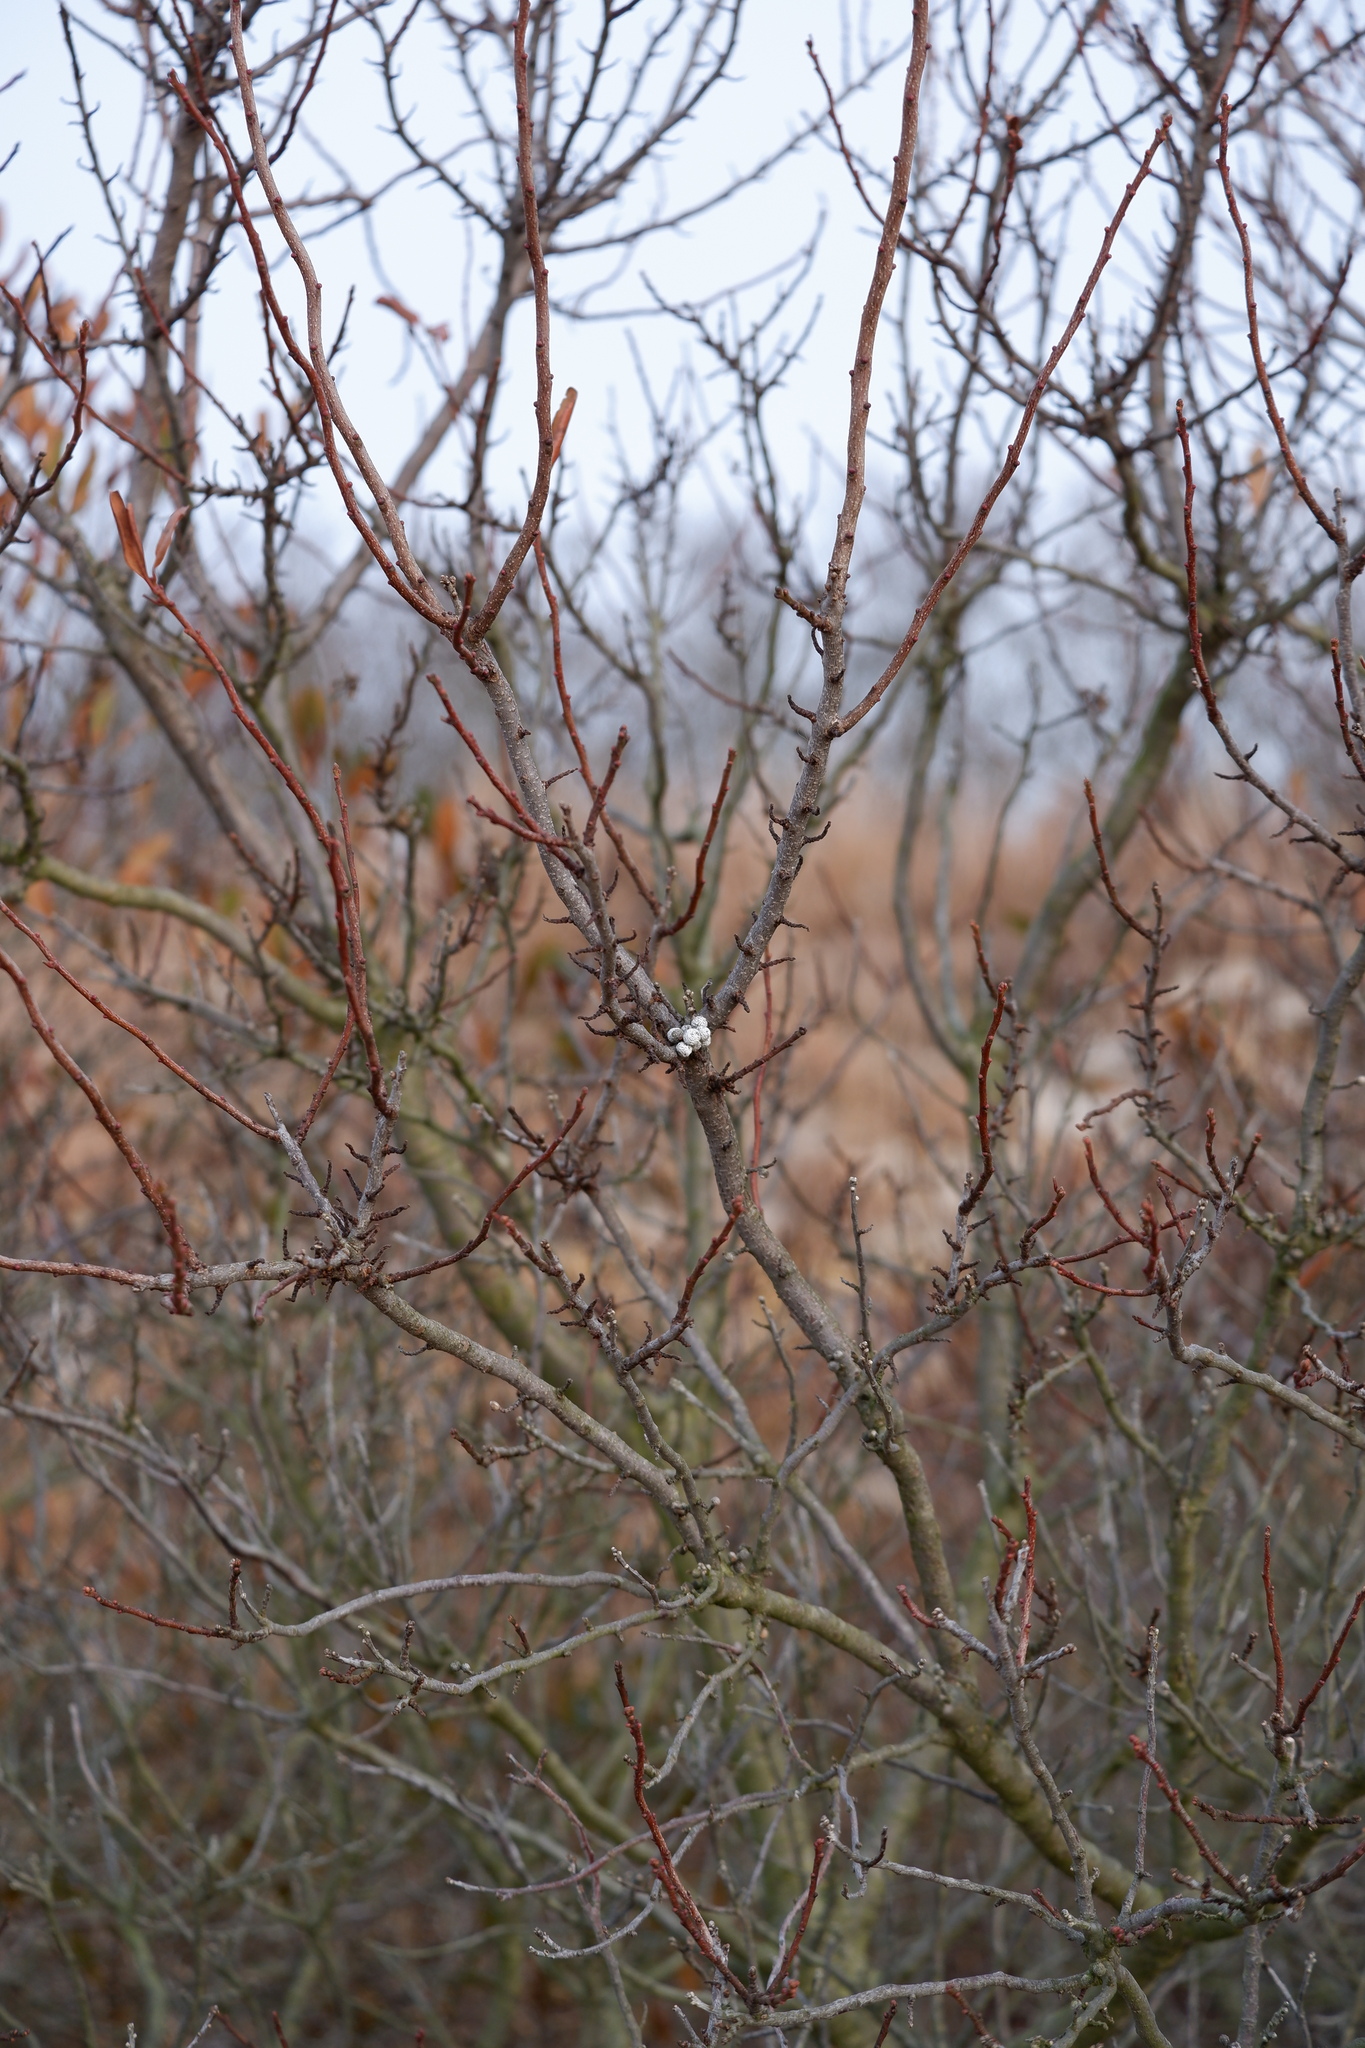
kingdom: Plantae
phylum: Tracheophyta
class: Magnoliopsida
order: Fagales
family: Myricaceae
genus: Morella
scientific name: Morella pensylvanica
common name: Northern bayberry
